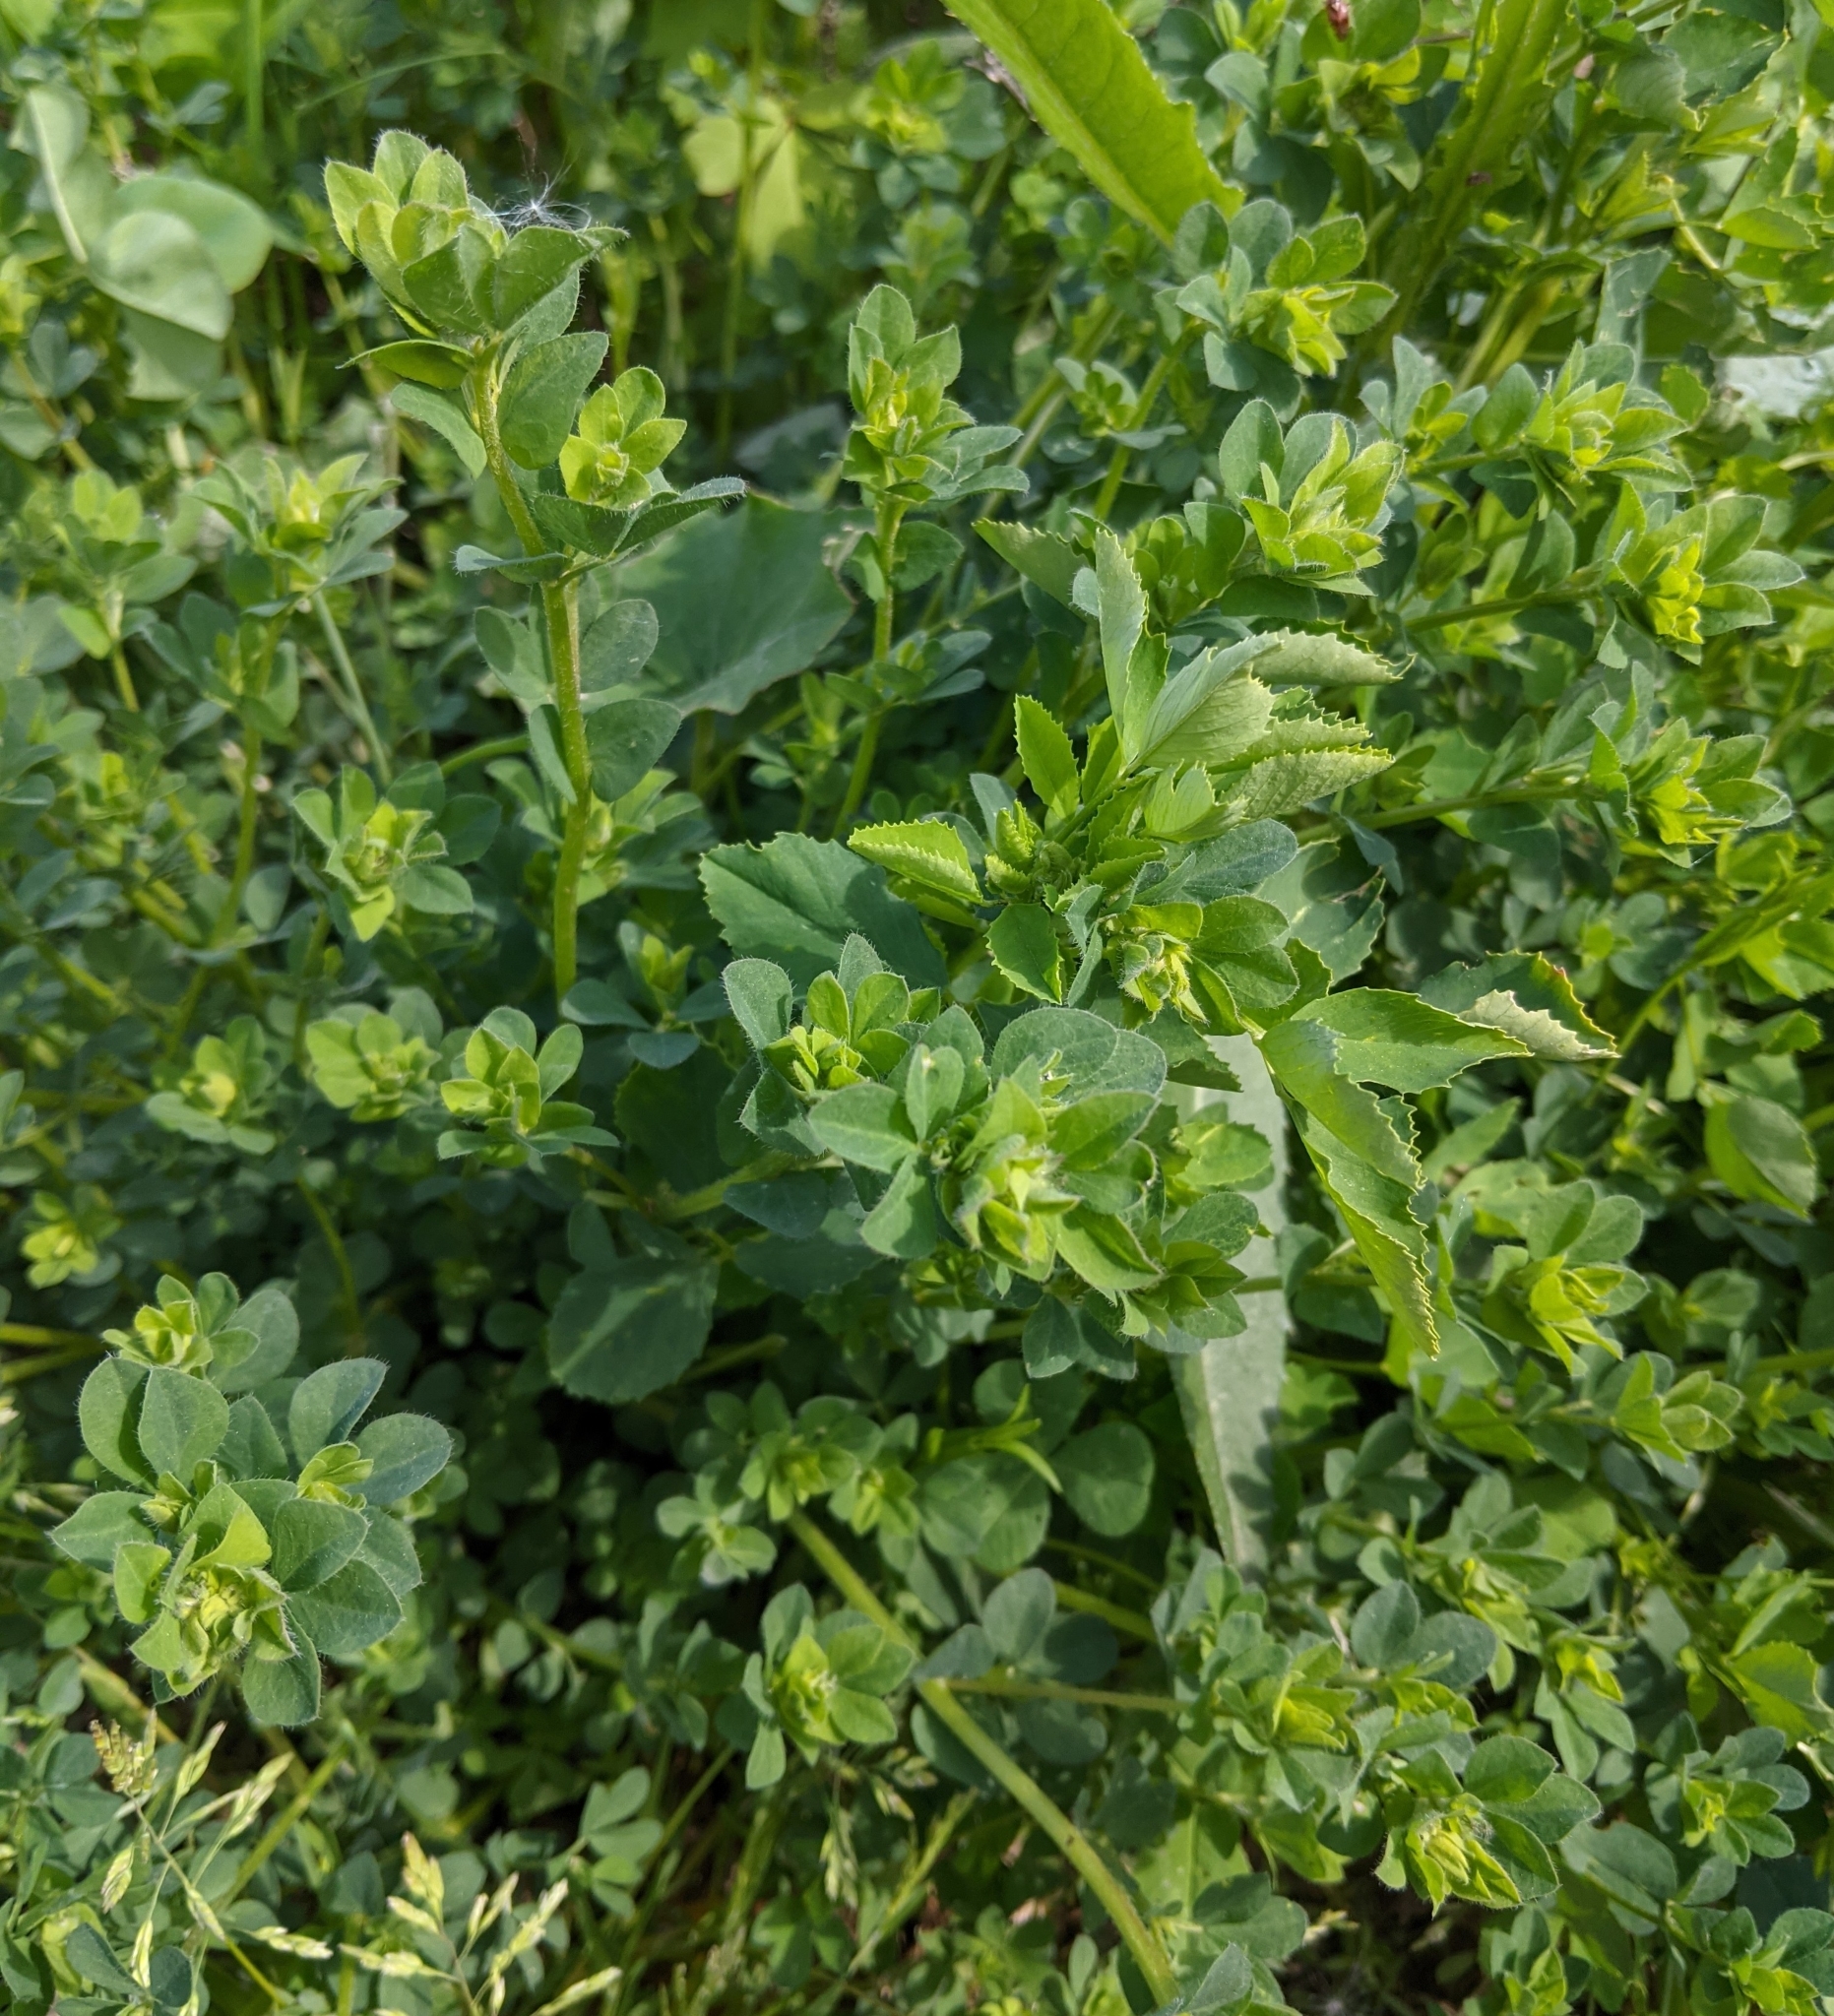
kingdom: Plantae
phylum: Tracheophyta
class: Magnoliopsida
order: Fabales
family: Fabaceae
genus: Lotus
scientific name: Lotus corniculatus
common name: Common bird's-foot-trefoil
